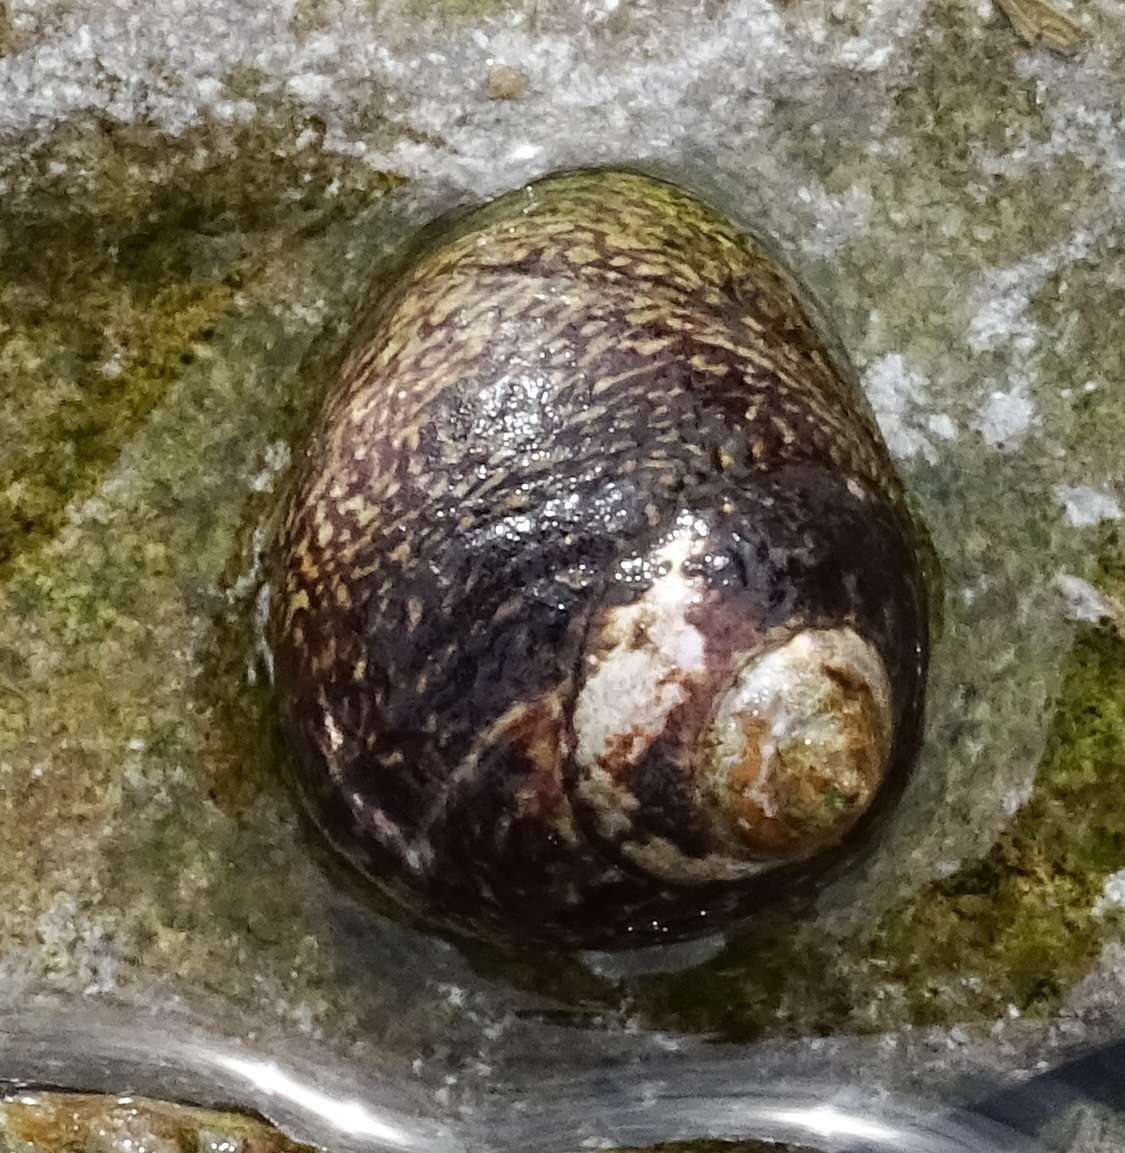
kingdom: Animalia
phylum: Mollusca
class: Gastropoda
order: Trochida
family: Trochidae
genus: Phorcus
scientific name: Phorcus lineatus
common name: Toothed top shell
